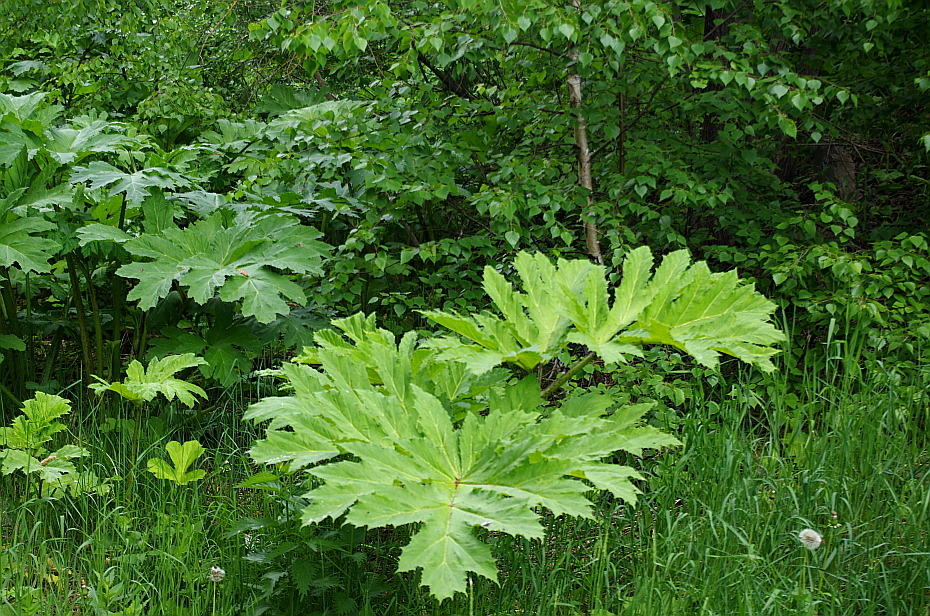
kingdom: Plantae
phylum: Tracheophyta
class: Magnoliopsida
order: Apiales
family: Apiaceae
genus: Heracleum
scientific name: Heracleum sosnowskyi
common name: Sosnowsky's hogweed
